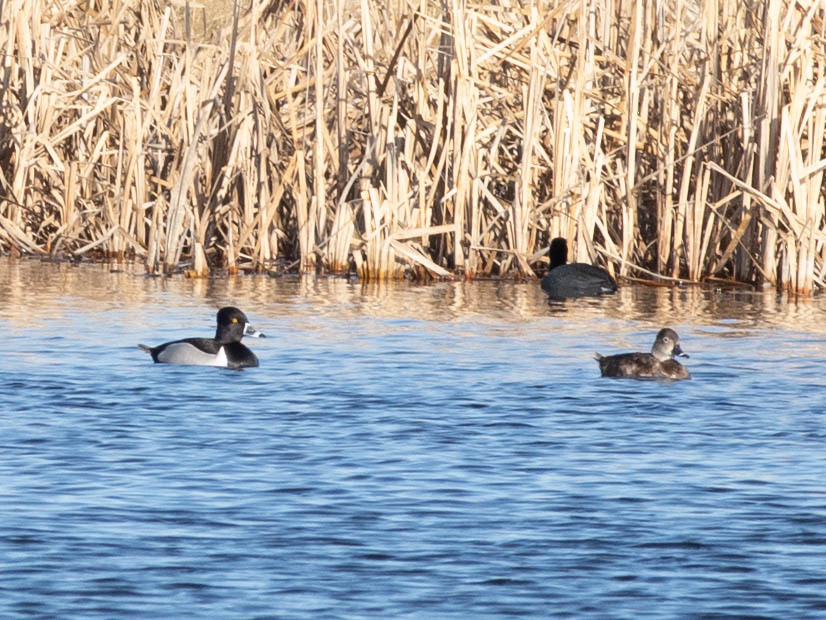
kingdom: Animalia
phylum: Chordata
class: Aves
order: Anseriformes
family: Anatidae
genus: Aythya
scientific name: Aythya collaris
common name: Ring-necked duck
